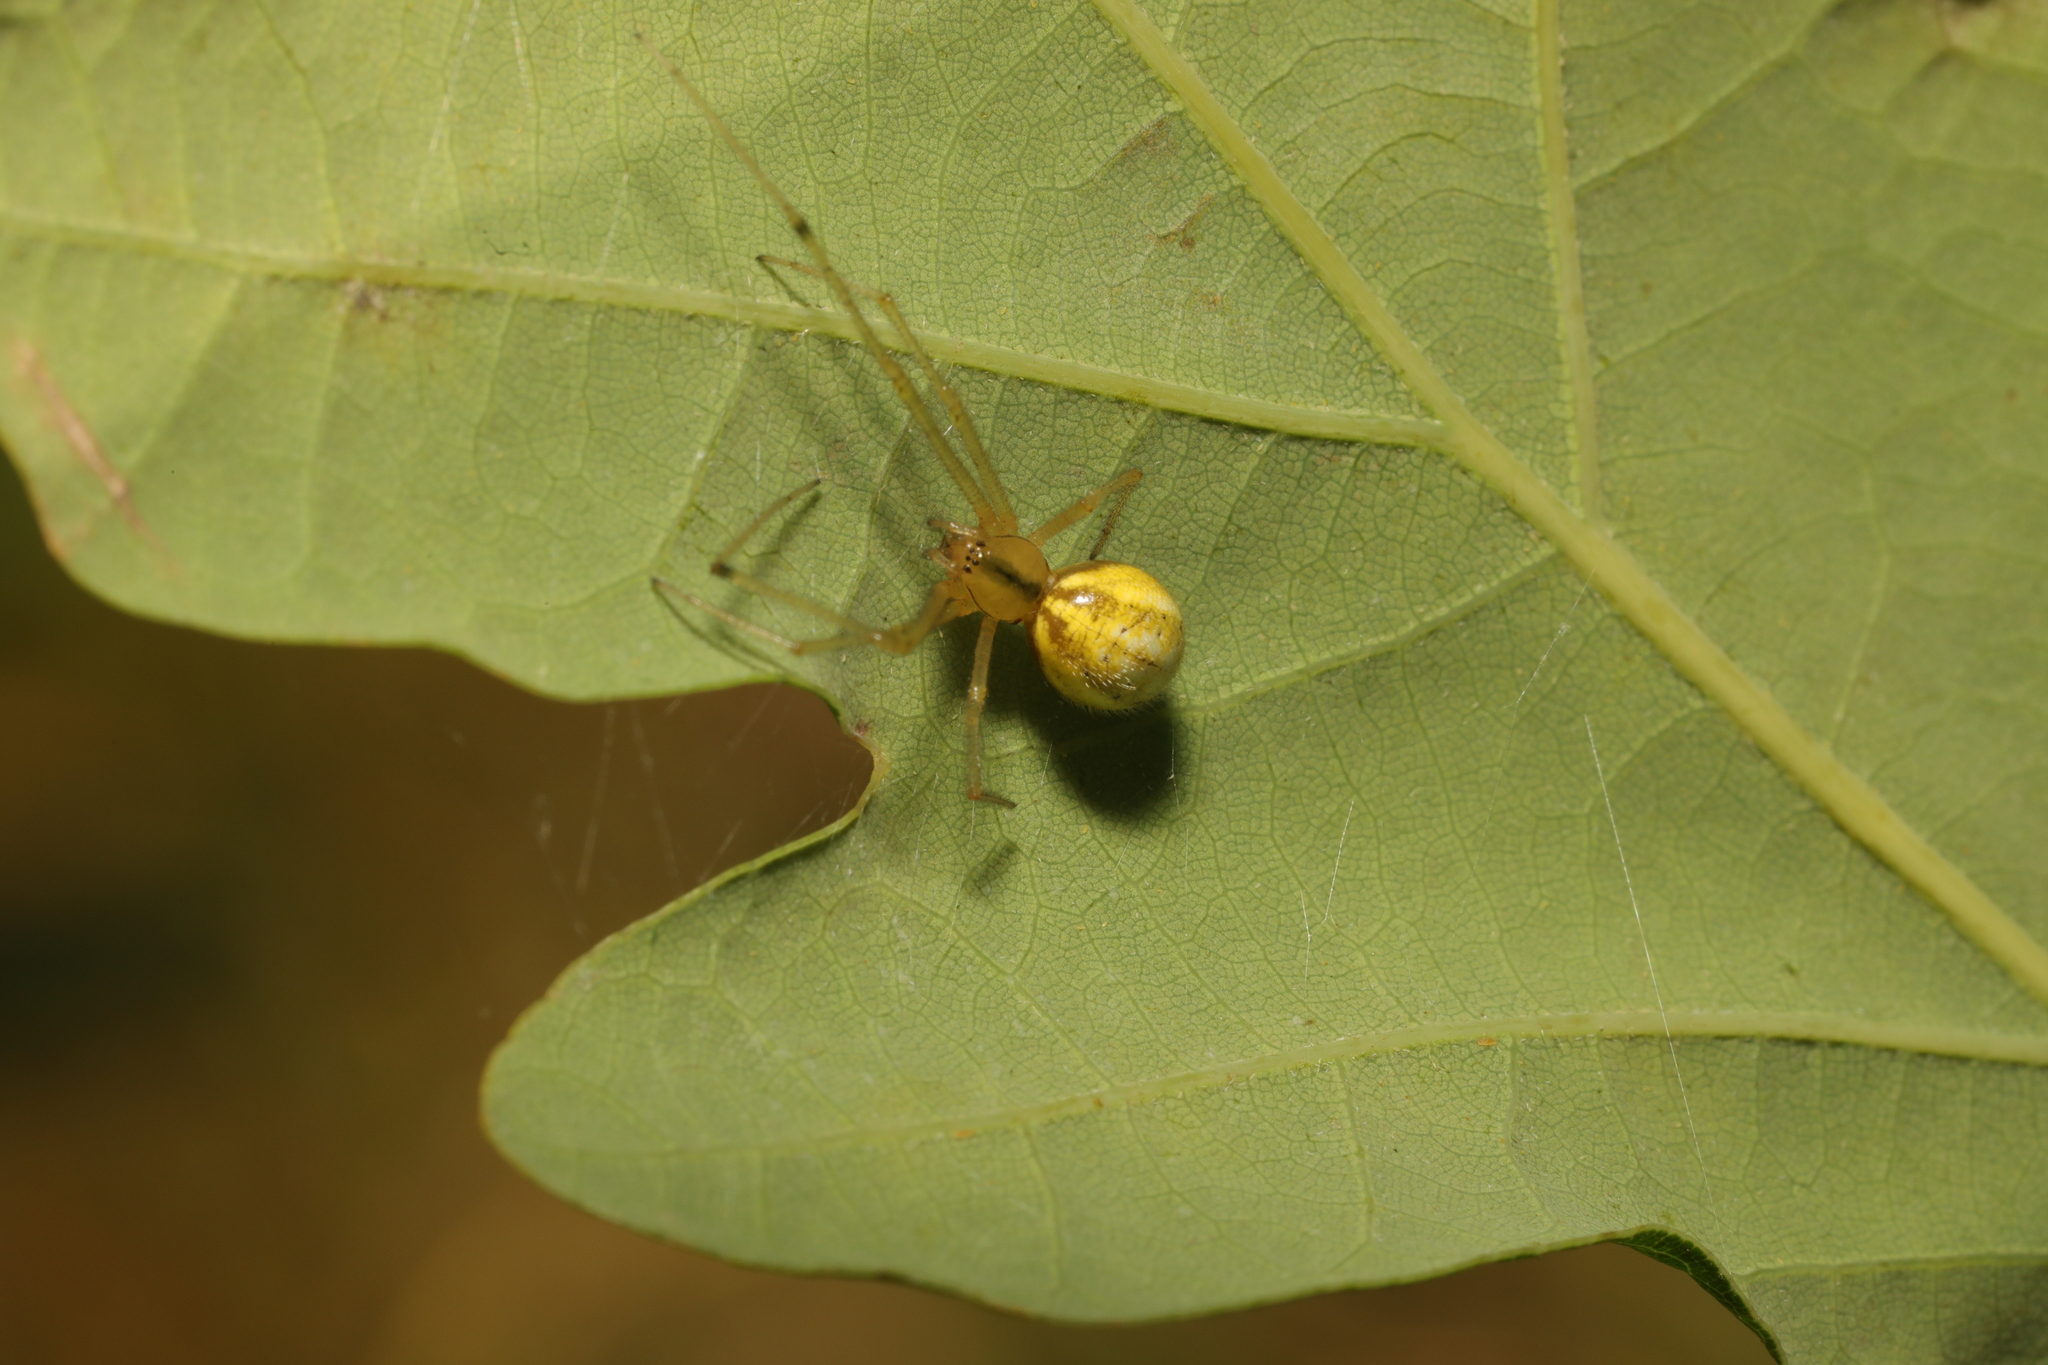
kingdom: Animalia
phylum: Arthropoda
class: Arachnida
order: Araneae
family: Theridiidae
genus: Enoplognatha
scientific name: Enoplognatha ovata
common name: Common candy-striped spider
